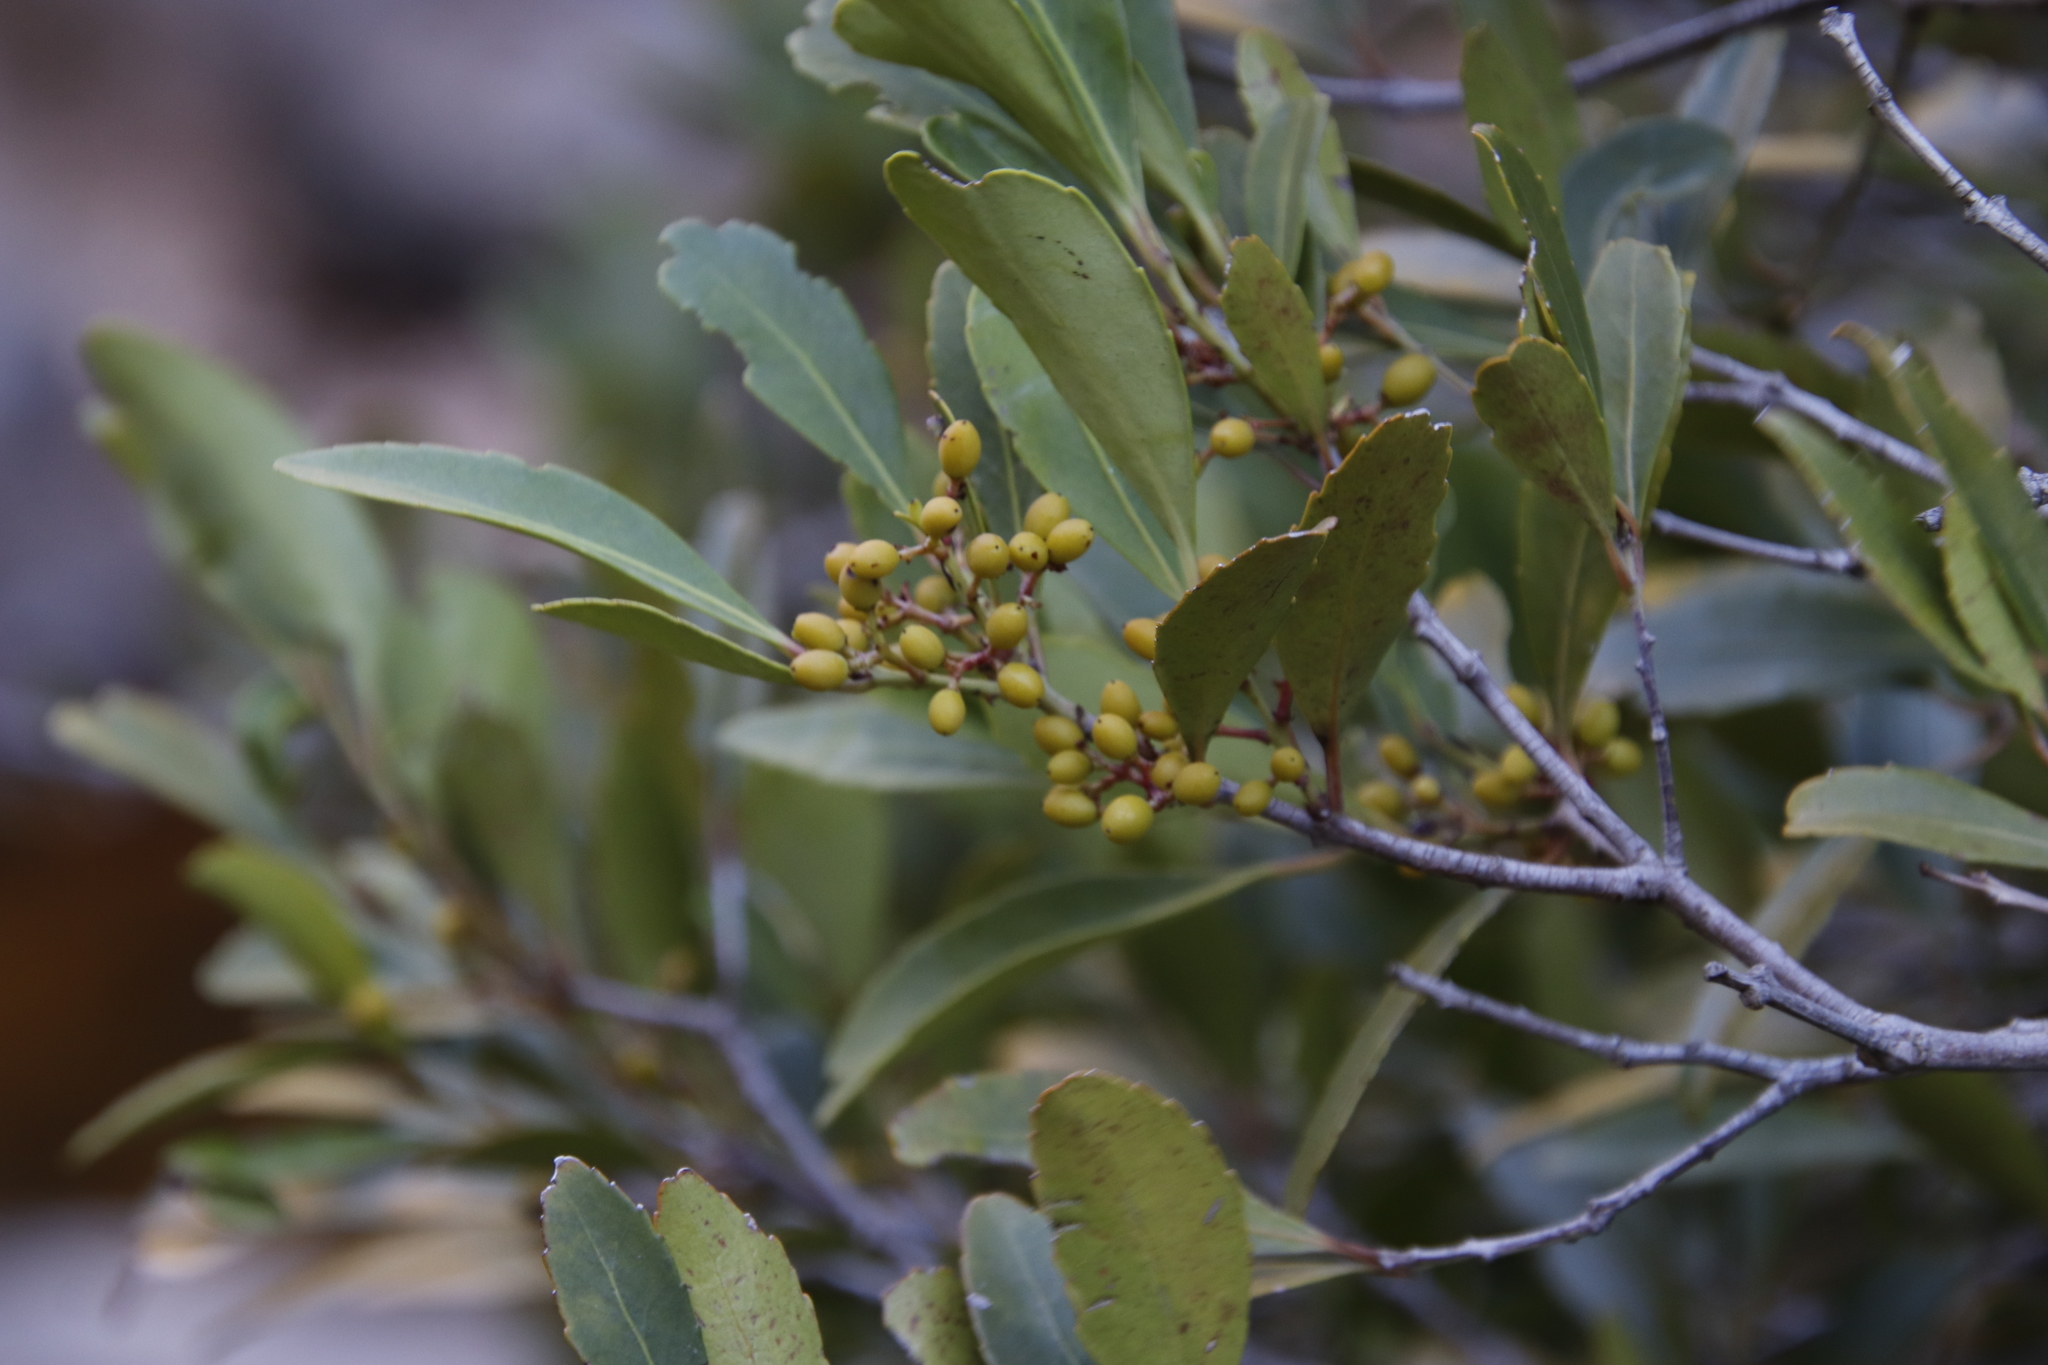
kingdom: Plantae
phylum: Tracheophyta
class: Magnoliopsida
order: Celastrales
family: Celastraceae
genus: Elaeodendron
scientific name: Elaeodendron schinoides
